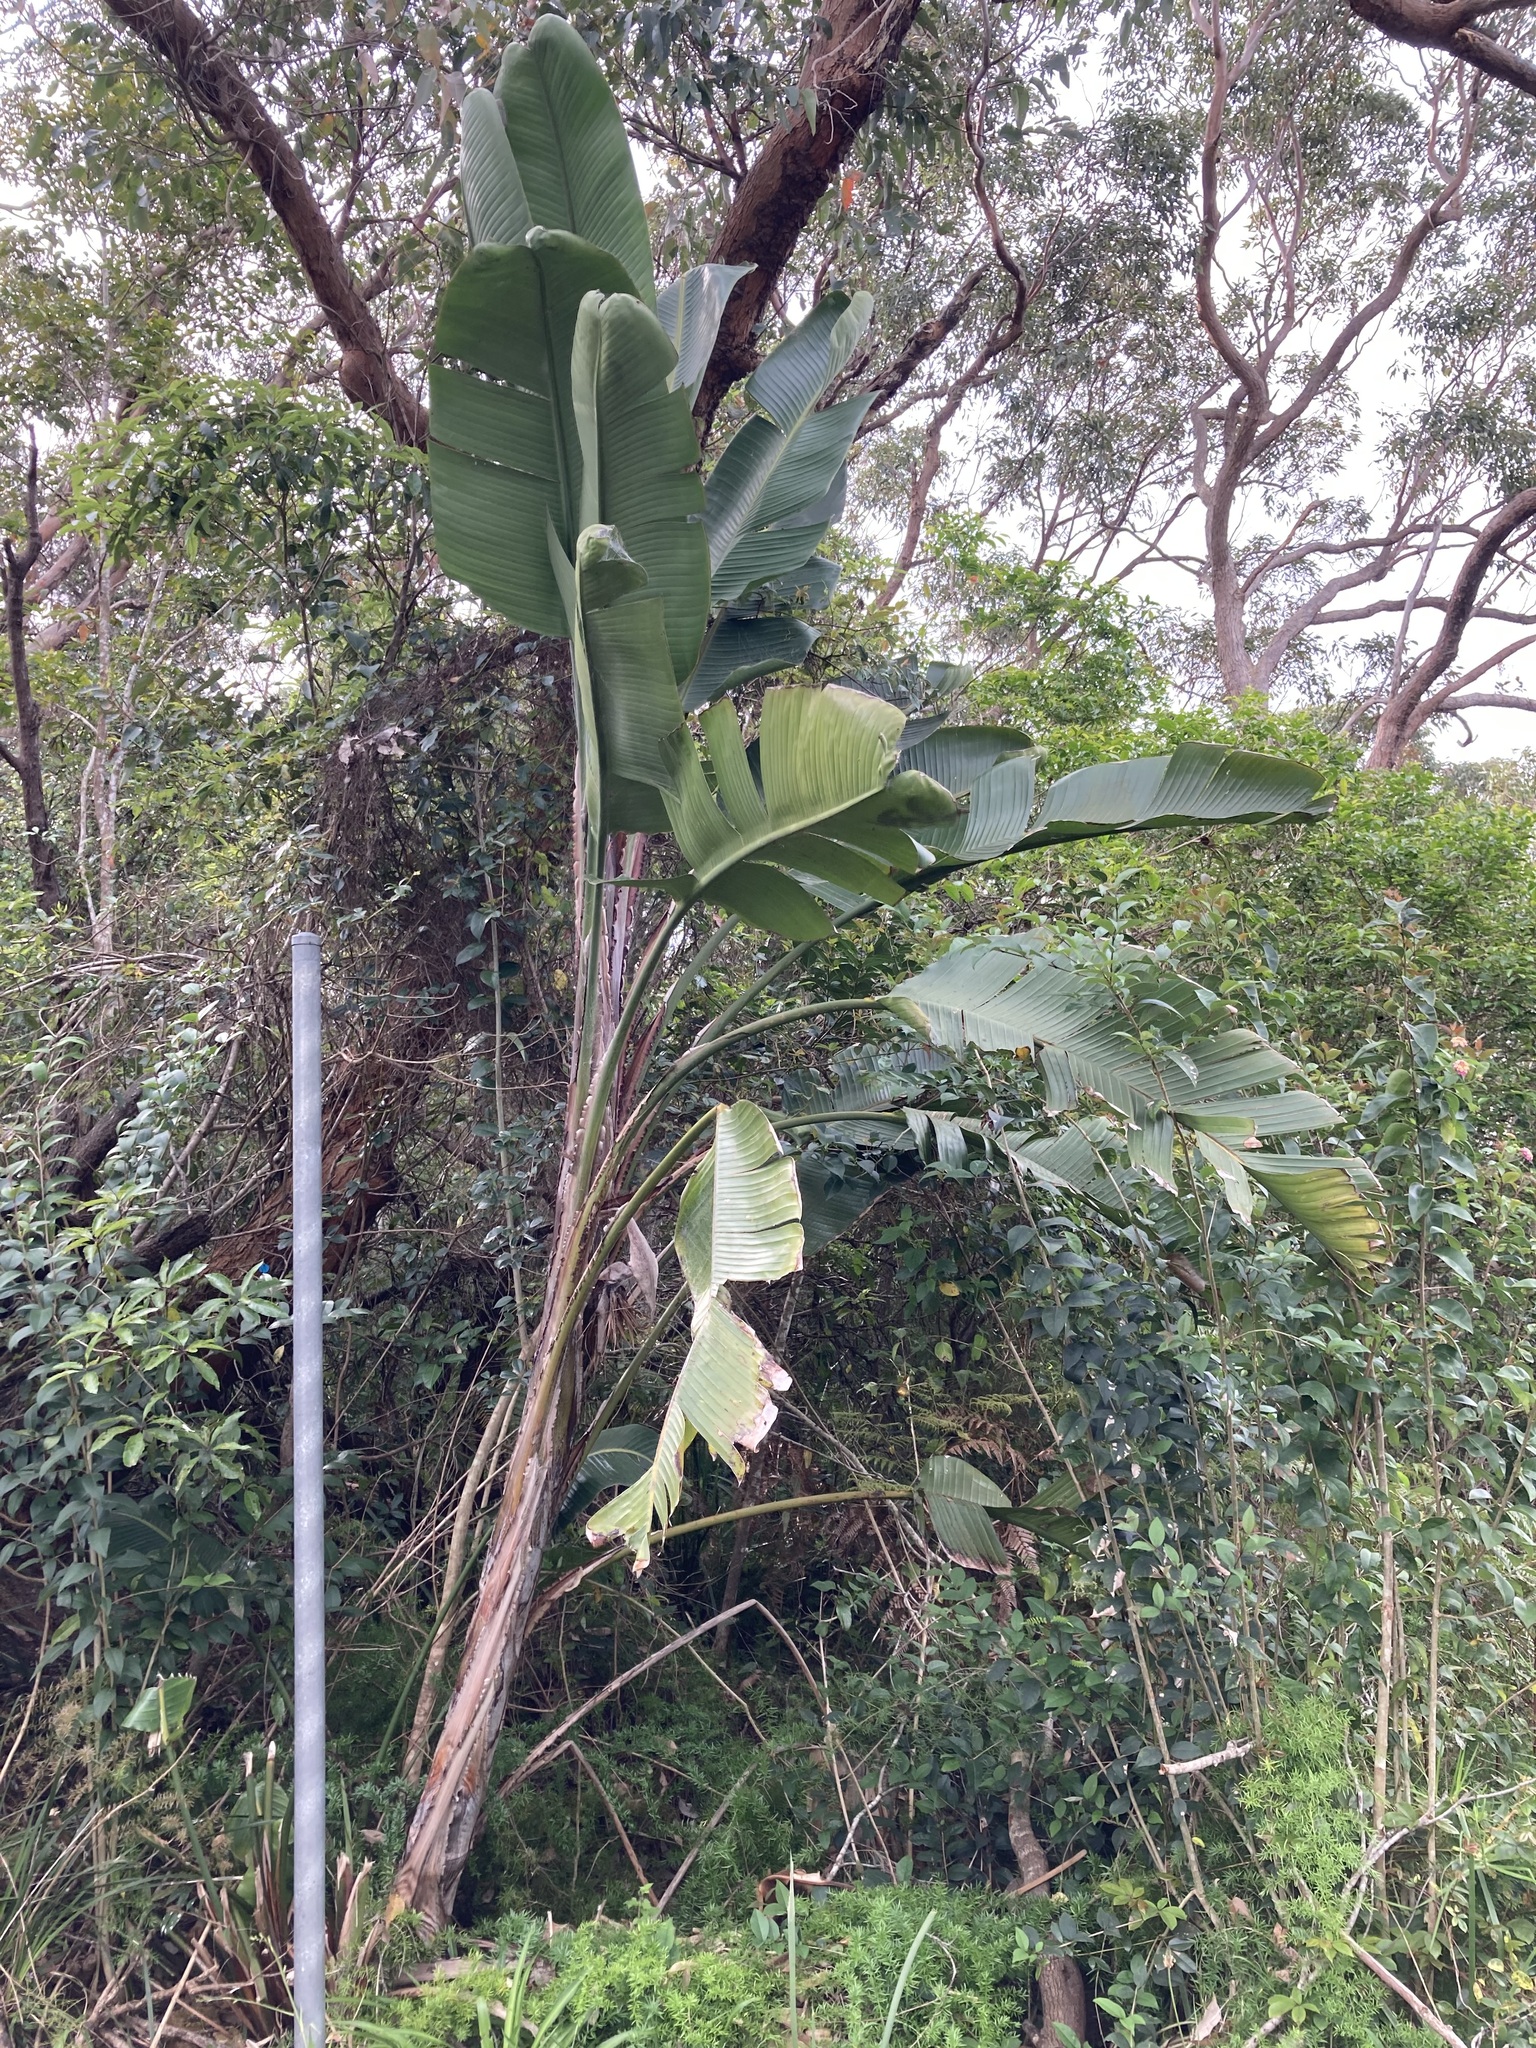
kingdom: Plantae
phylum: Tracheophyta
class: Liliopsida
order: Zingiberales
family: Strelitziaceae
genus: Strelitzia
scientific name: Strelitzia nicolai
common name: Bird-of-paradise tree
